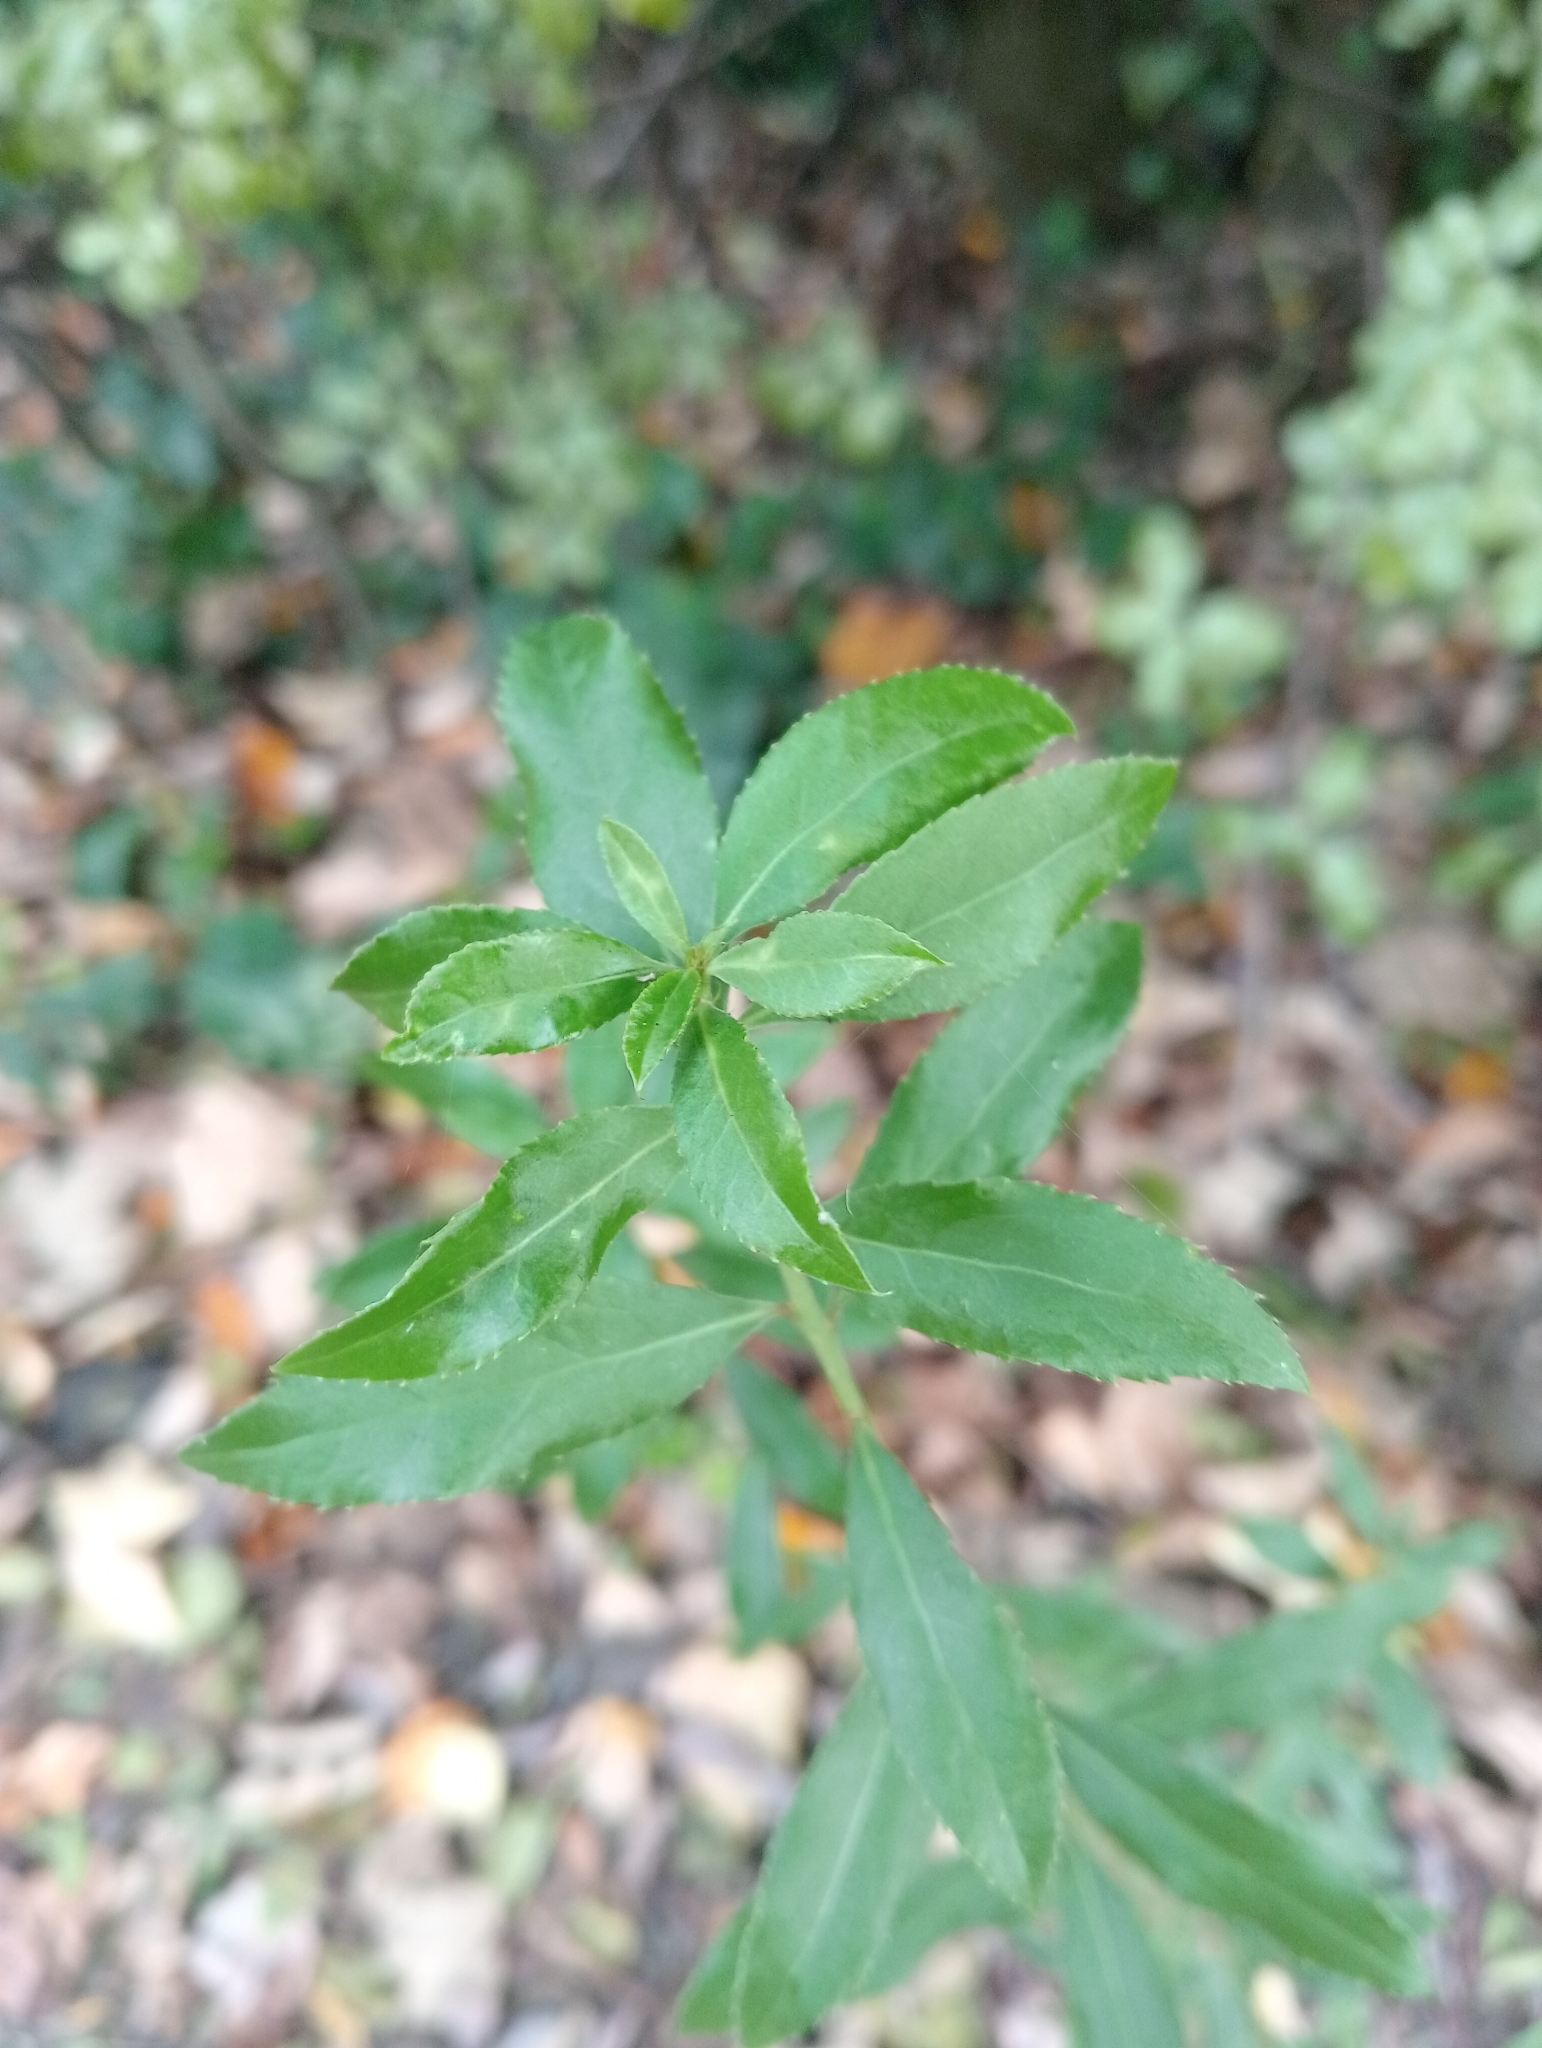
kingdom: Plantae
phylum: Tracheophyta
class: Magnoliopsida
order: Celastrales
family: Celastraceae
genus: Maytenus
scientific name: Maytenus boaria
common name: Mayten
